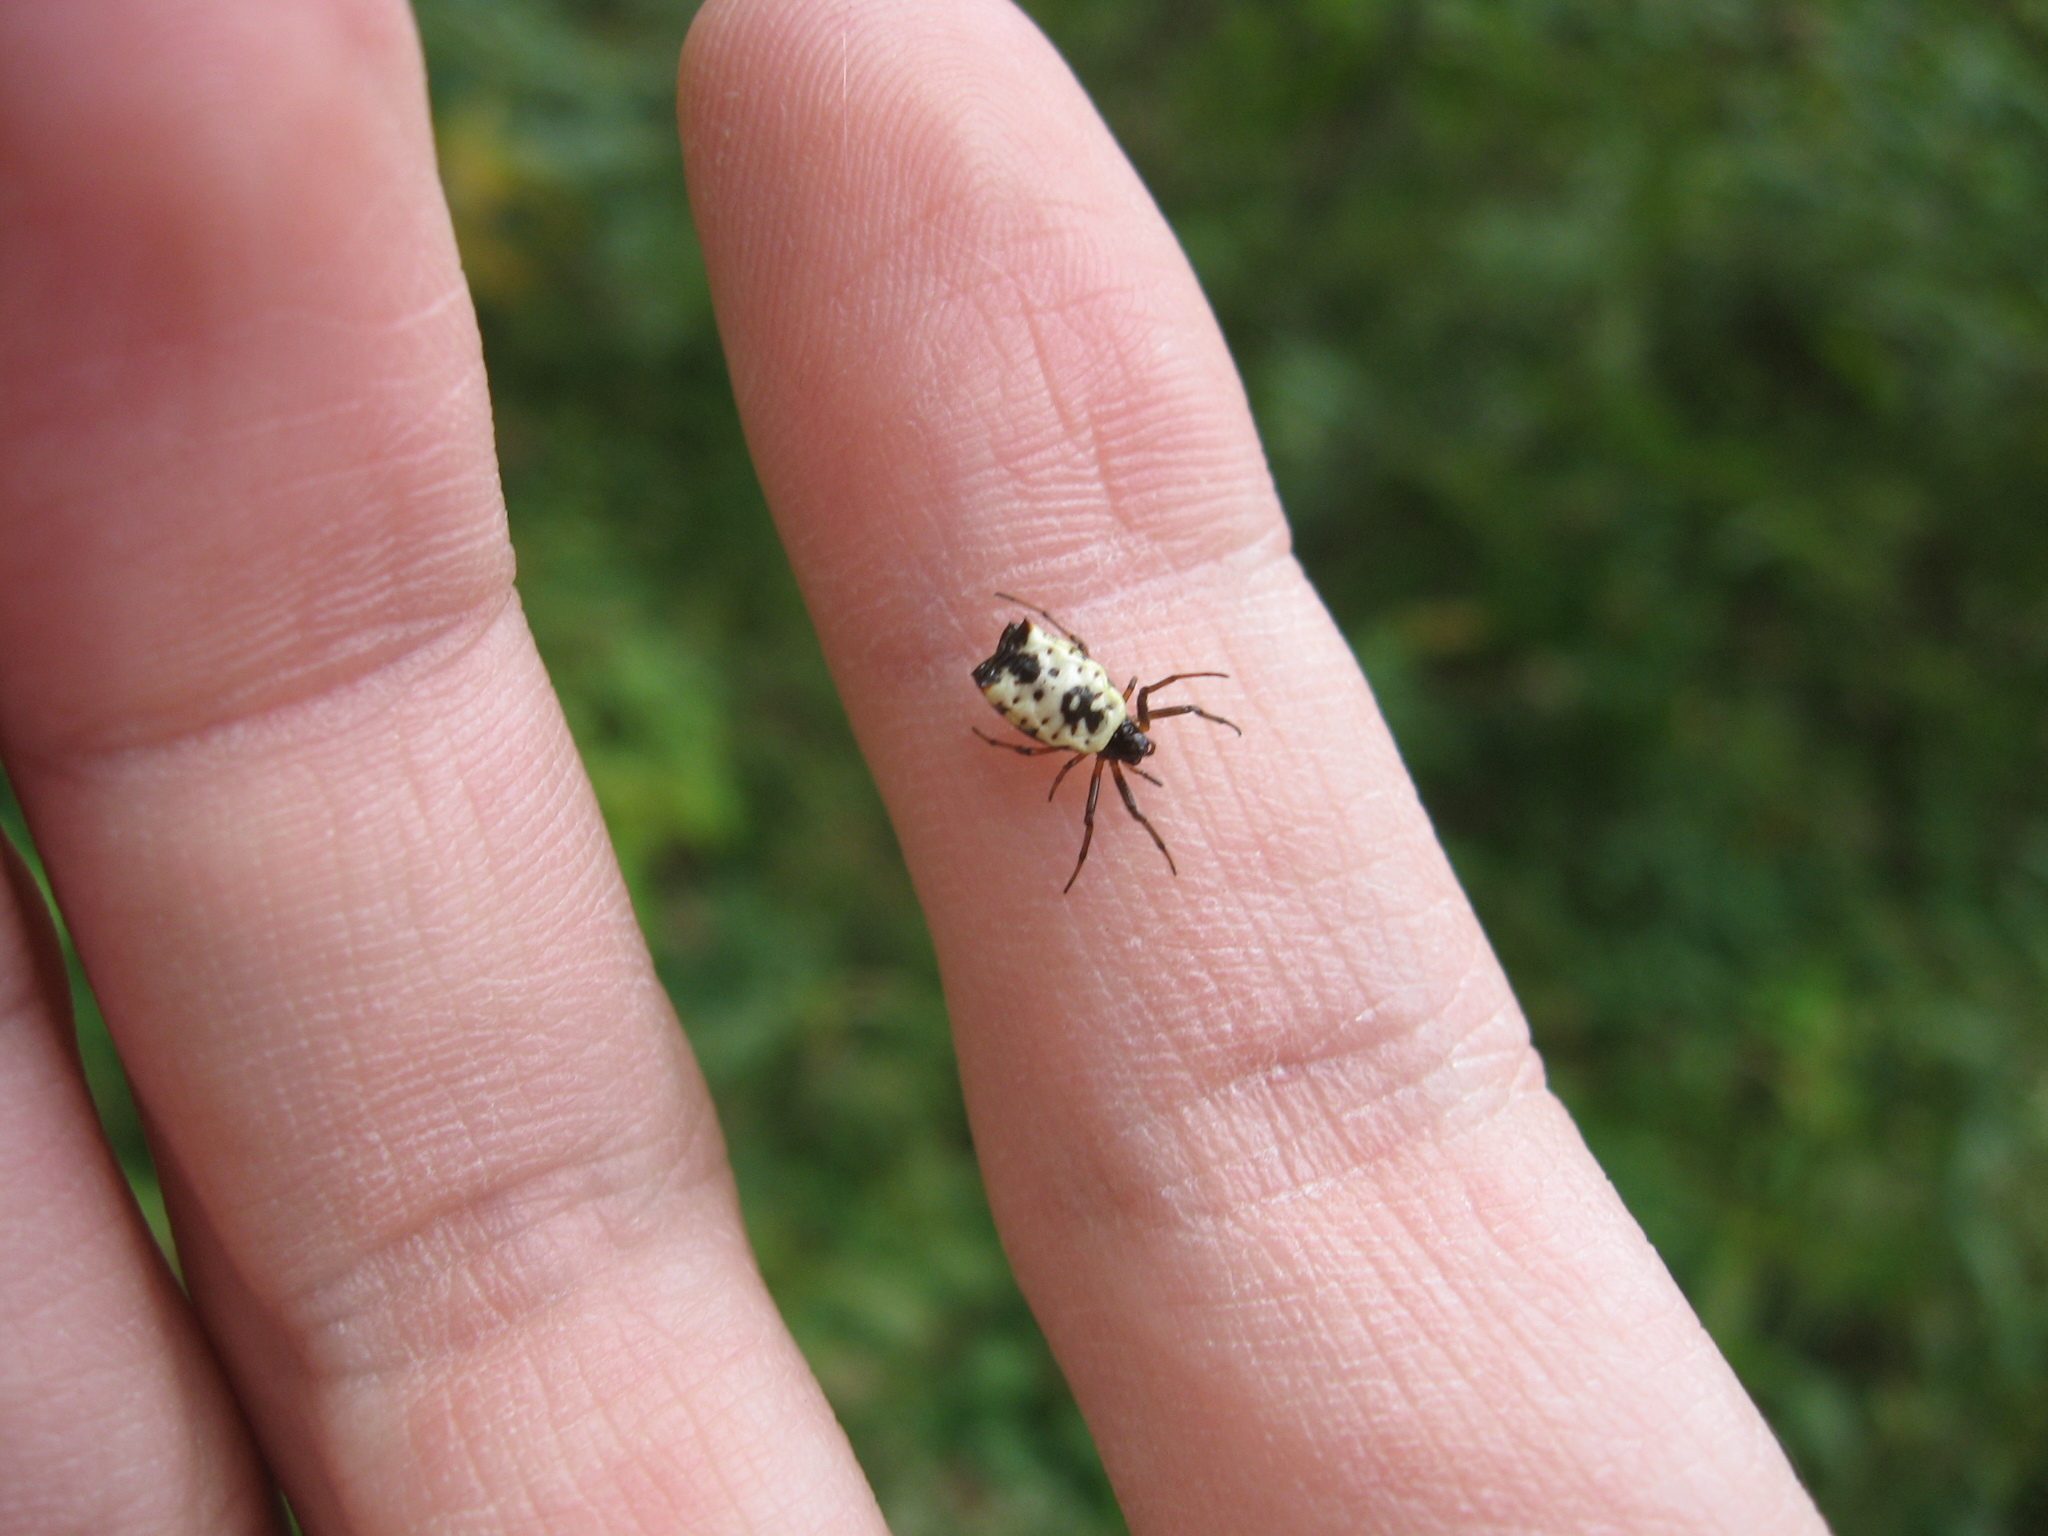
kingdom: Animalia
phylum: Arthropoda
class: Arachnida
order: Araneae
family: Araneidae
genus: Micrathena
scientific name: Micrathena mitrata
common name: Orb weavers
